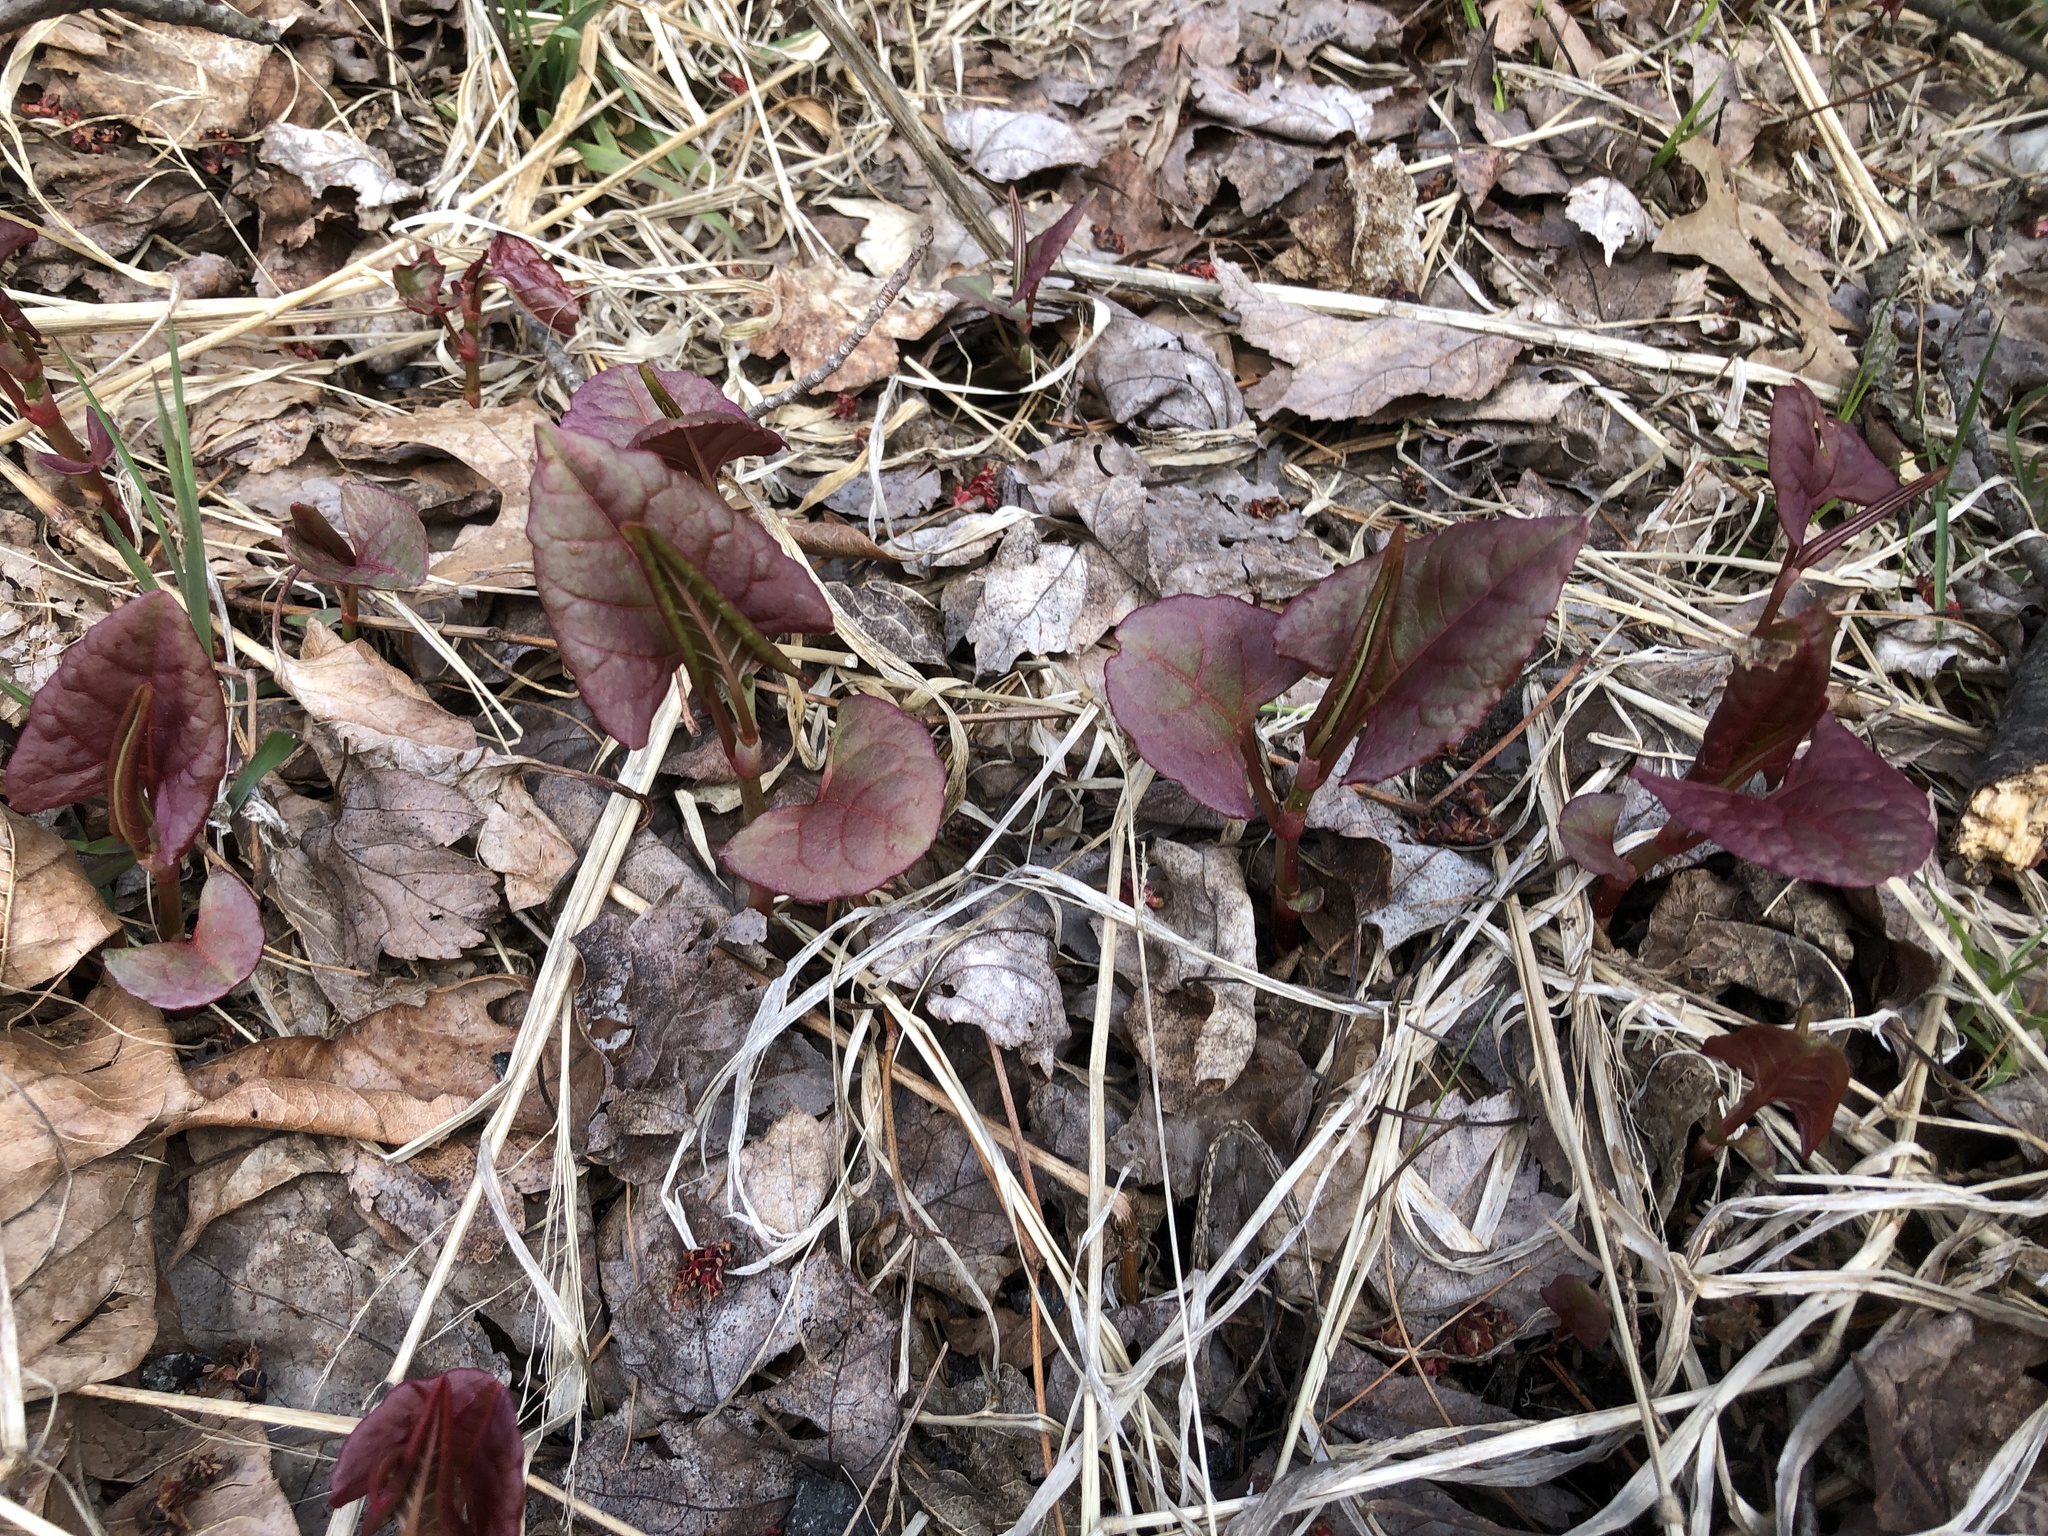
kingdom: Plantae
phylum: Tracheophyta
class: Magnoliopsida
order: Caryophyllales
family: Polygonaceae
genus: Reynoutria
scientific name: Reynoutria japonica
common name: Japanese knotweed
